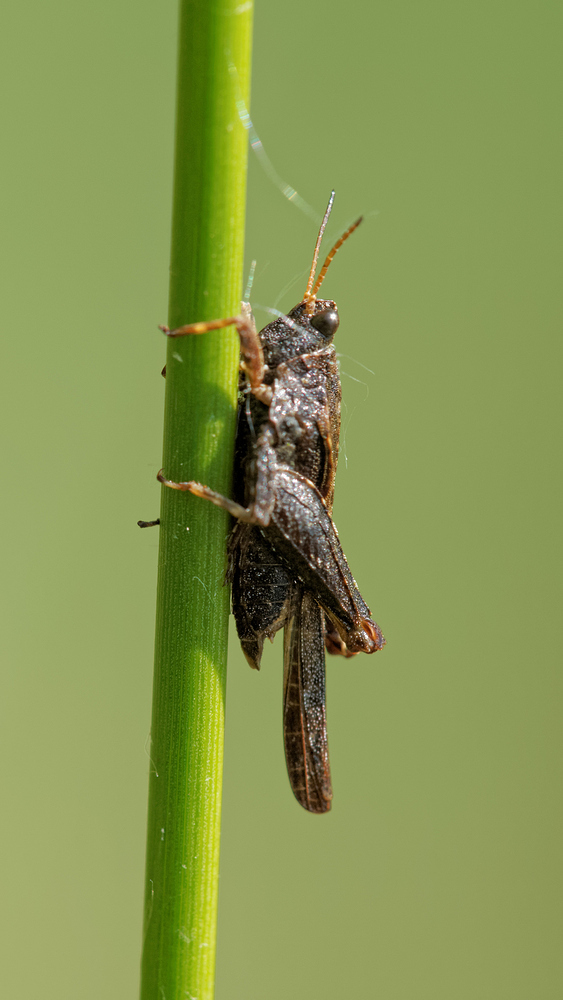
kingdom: Animalia
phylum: Arthropoda
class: Insecta
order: Orthoptera
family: Tetrigidae
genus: Tetrix
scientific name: Tetrix subulata
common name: Slender ground-hopper
